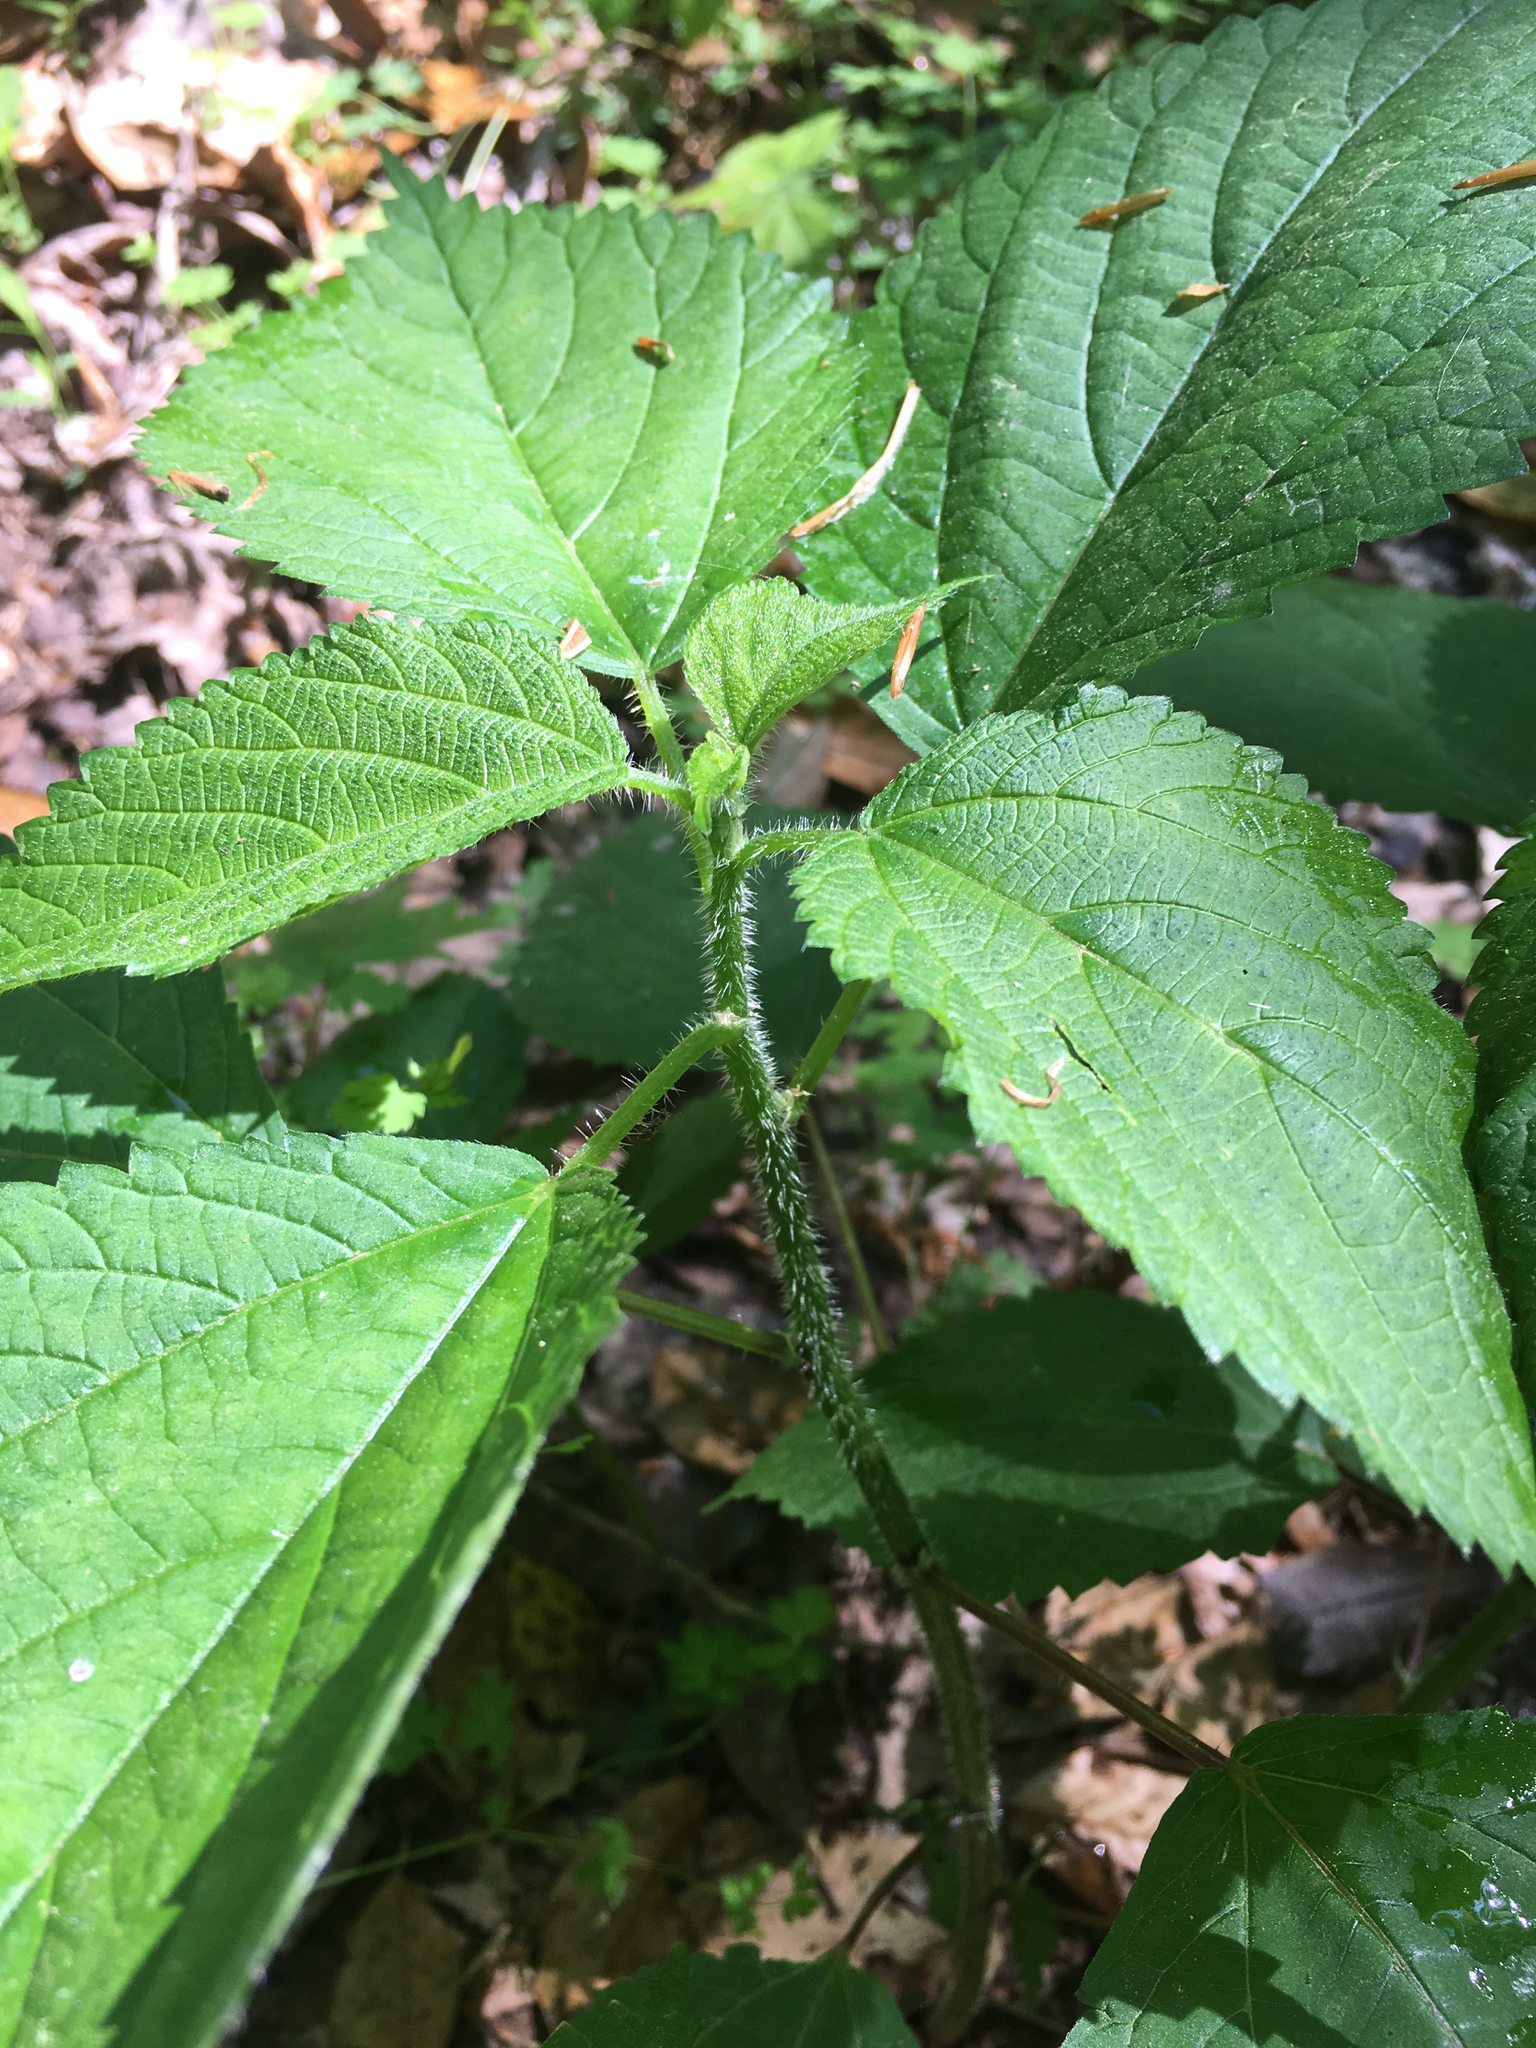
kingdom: Plantae
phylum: Tracheophyta
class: Magnoliopsida
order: Rosales
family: Urticaceae
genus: Laportea
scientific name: Laportea canadensis
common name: Canada nettle
